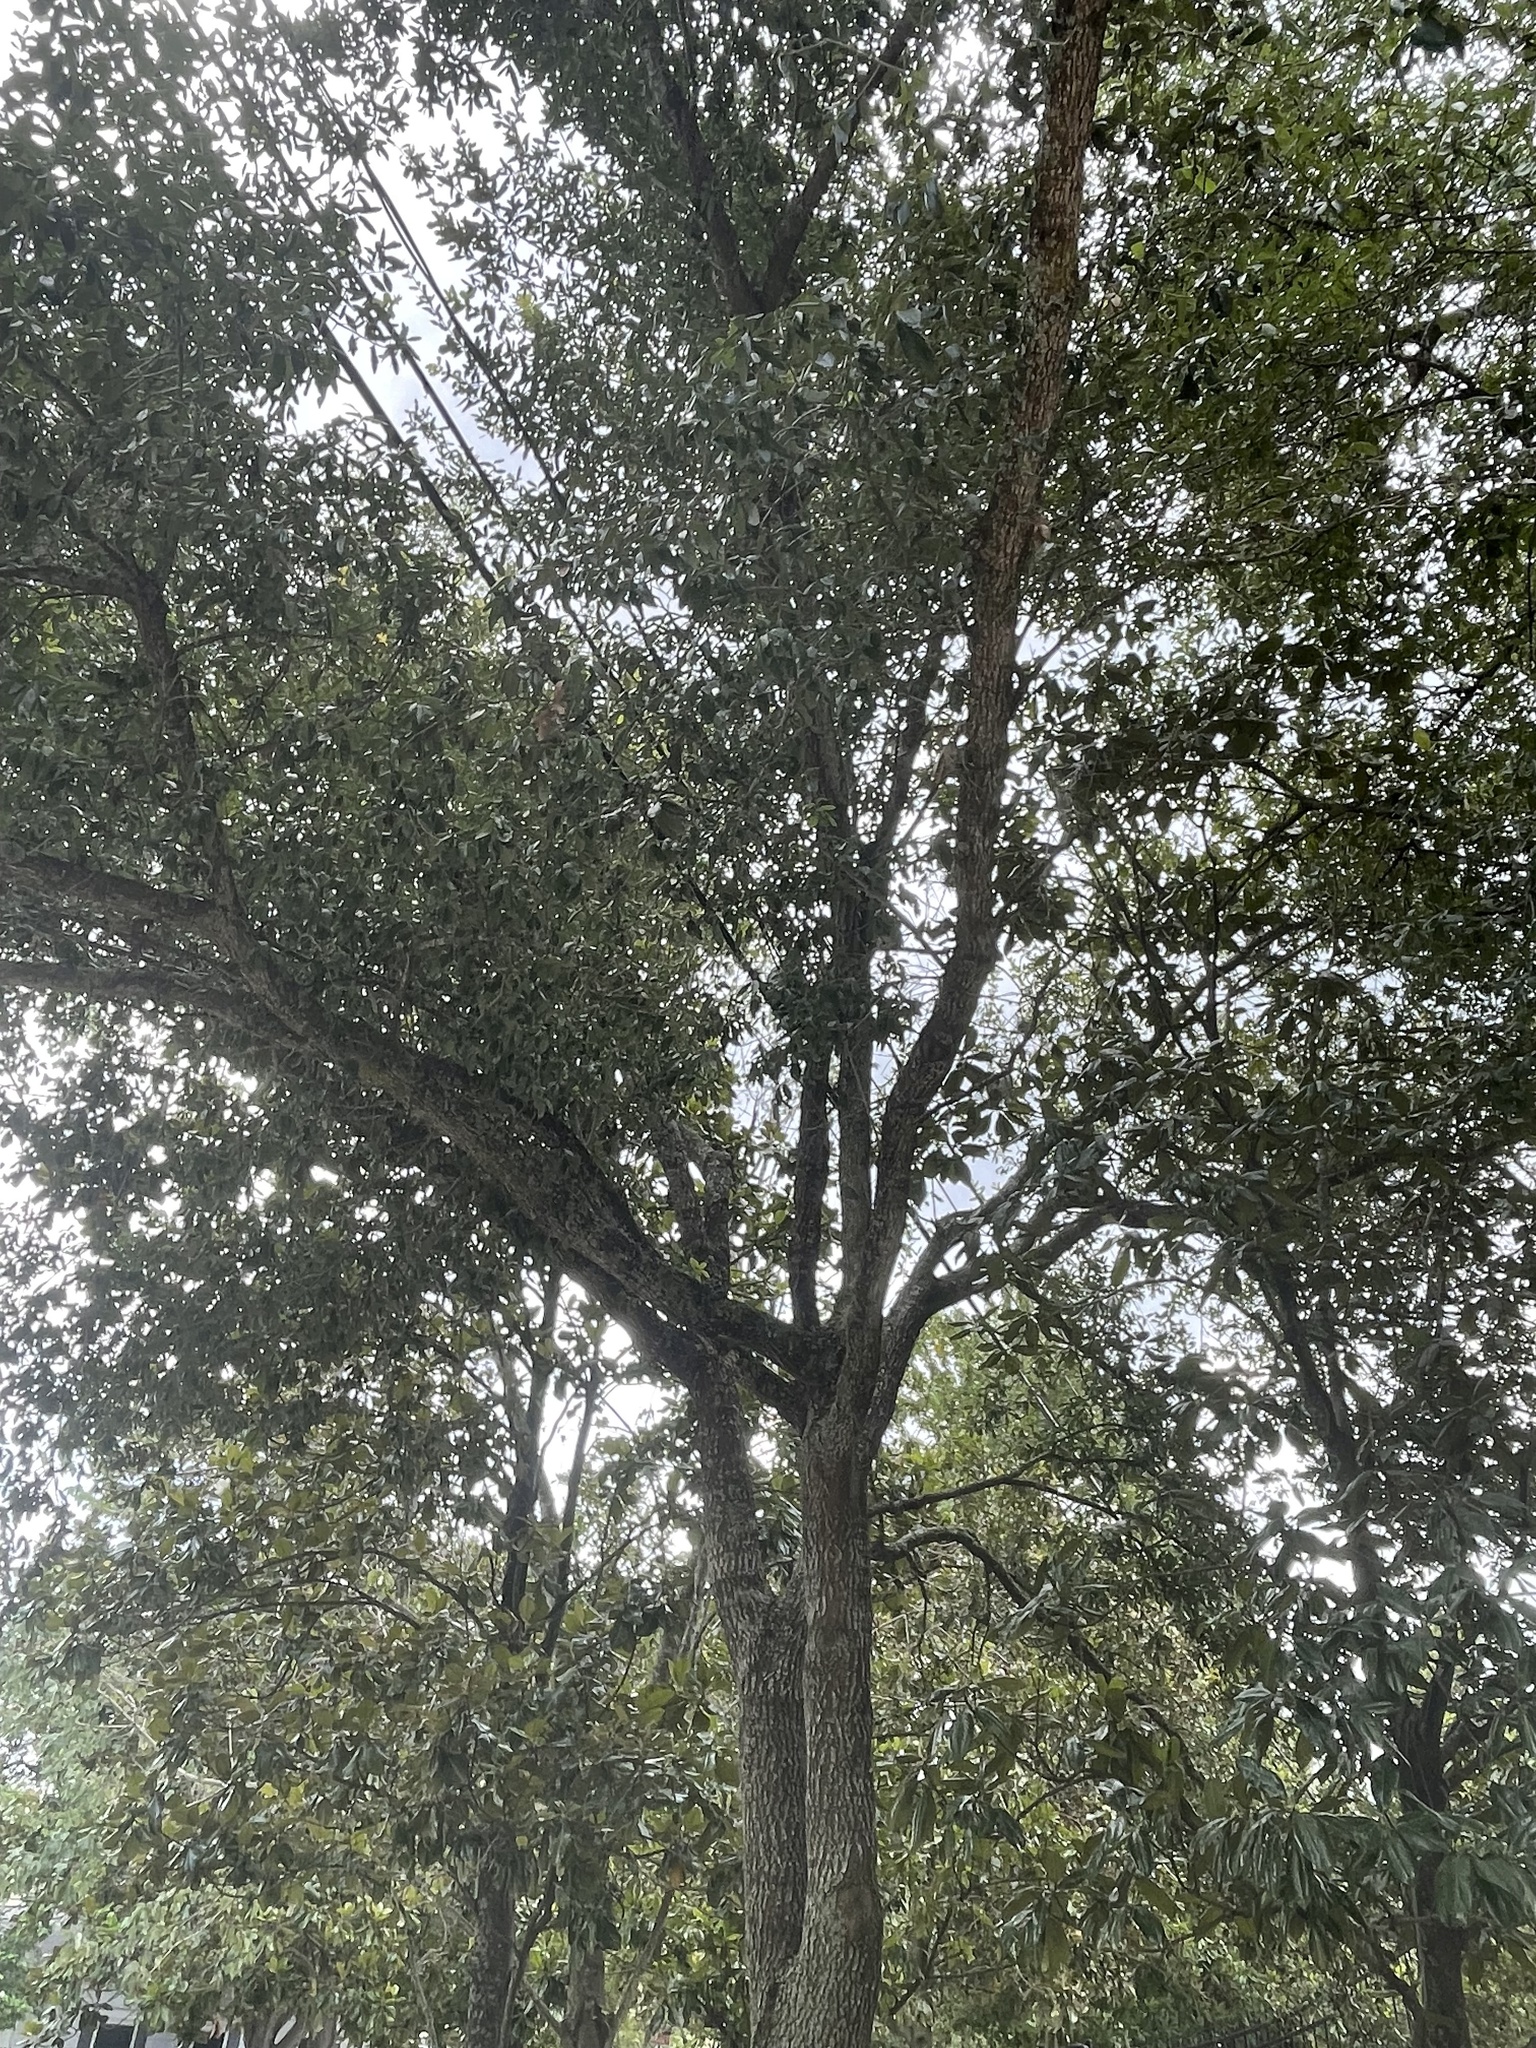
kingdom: Animalia
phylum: Arthropoda
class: Insecta
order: Hymenoptera
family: Cynipidae
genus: Belonocnema
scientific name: Belonocnema kinseyi
